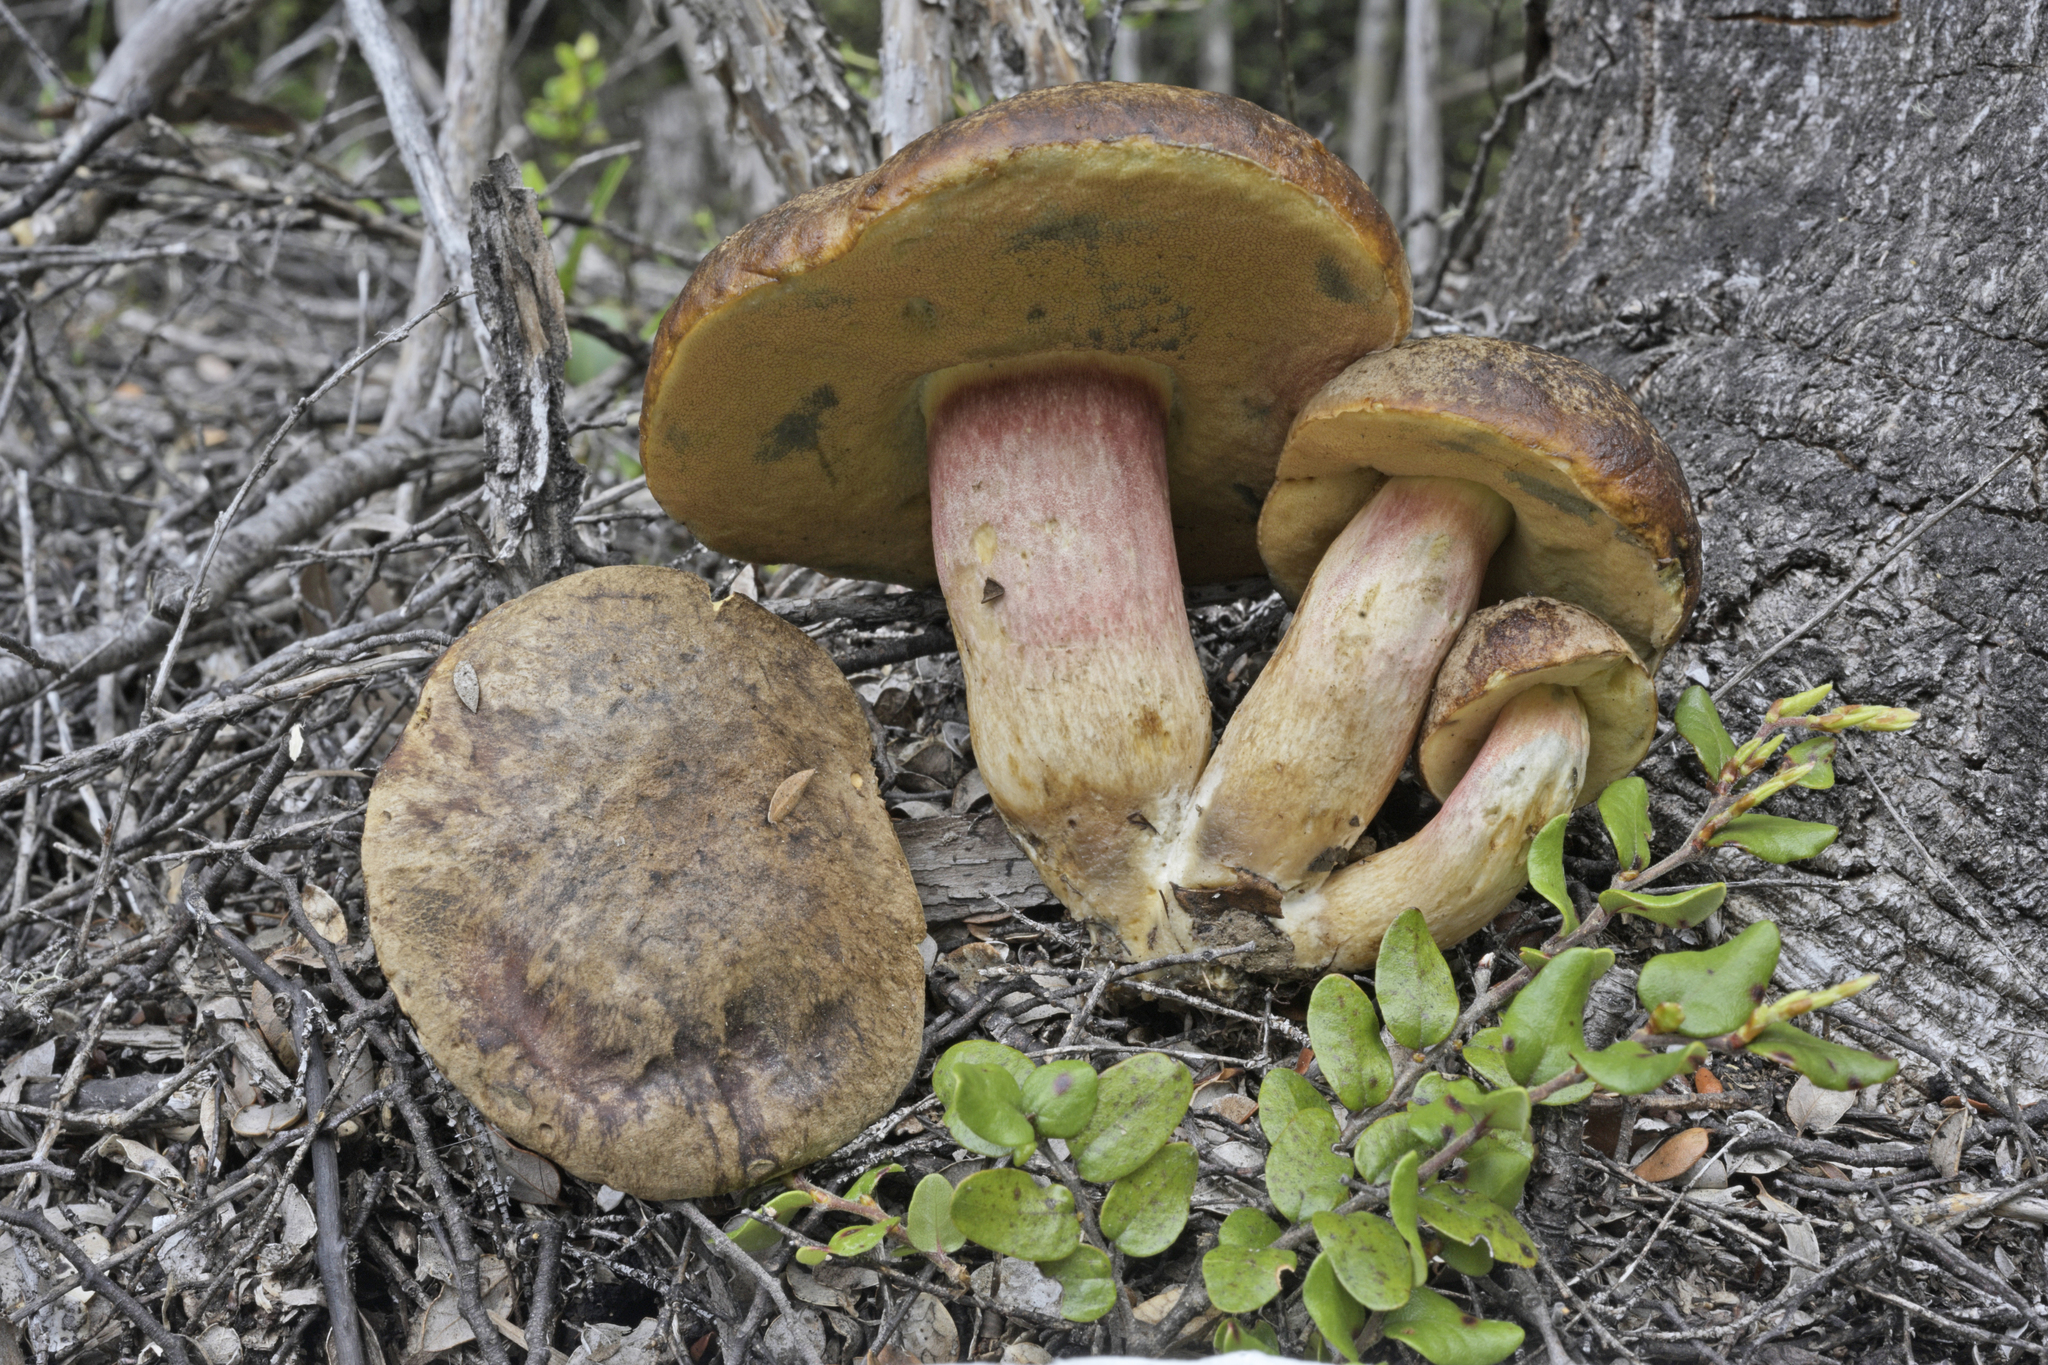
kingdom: Fungi
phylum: Basidiomycota
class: Agaricomycetes
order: Boletales
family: Boletaceae
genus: Xerocomus
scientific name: Xerocomus nothofagi
